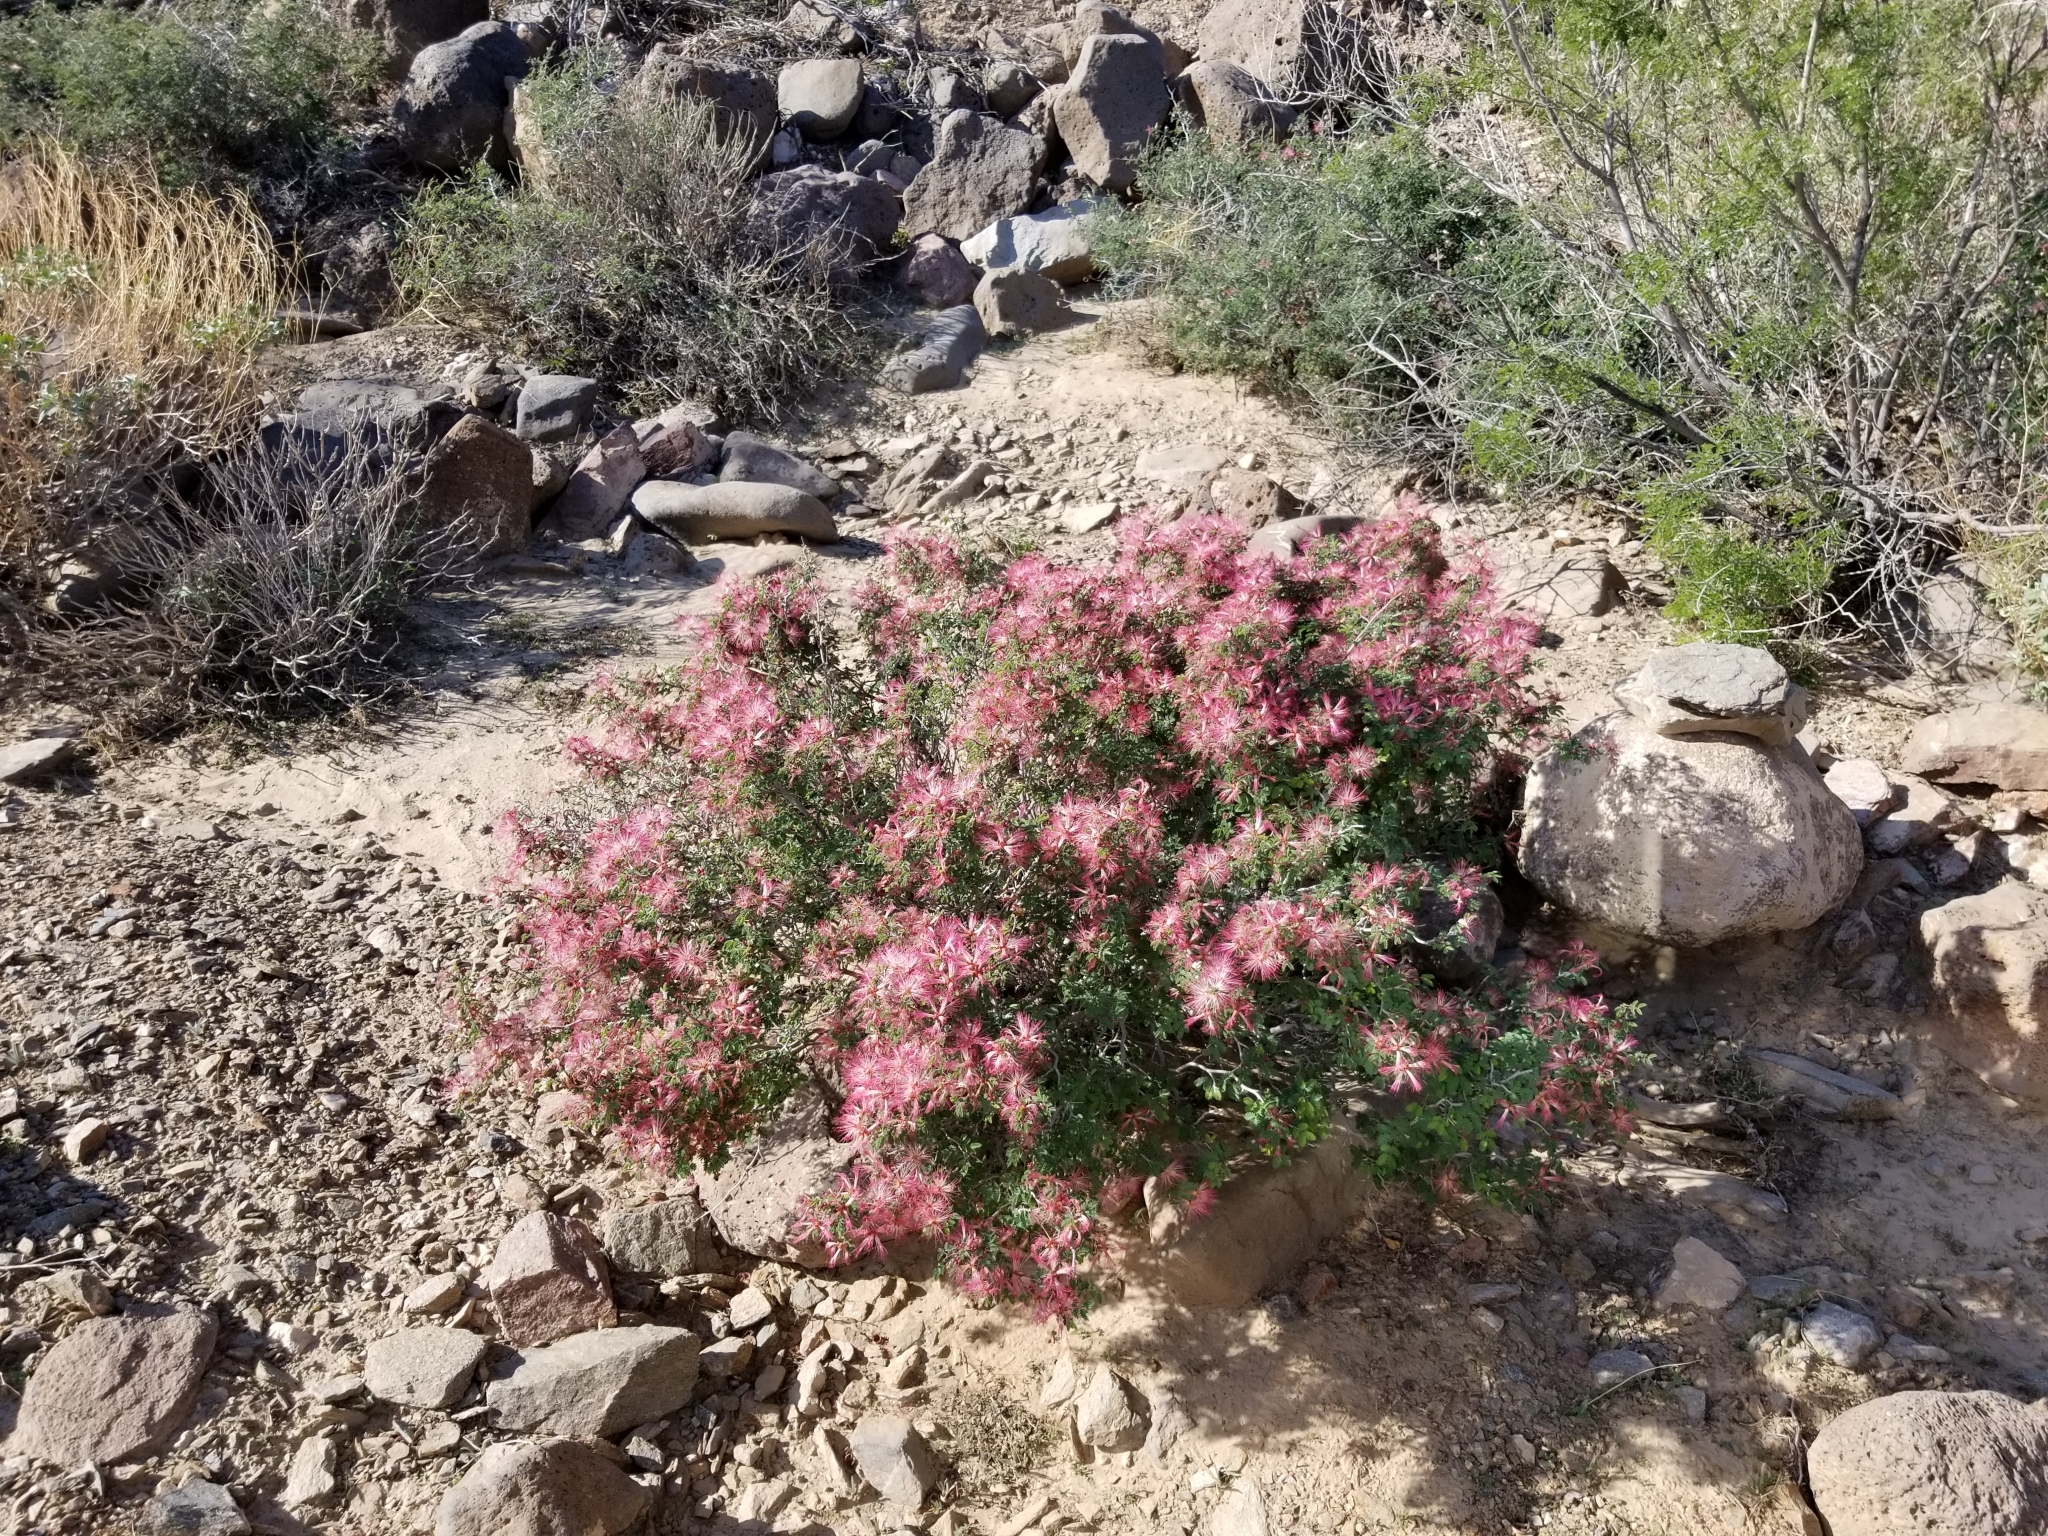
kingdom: Plantae
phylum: Tracheophyta
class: Magnoliopsida
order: Fabales
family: Fabaceae
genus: Calliandra
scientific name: Calliandra eriophylla
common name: Fairy-duster
